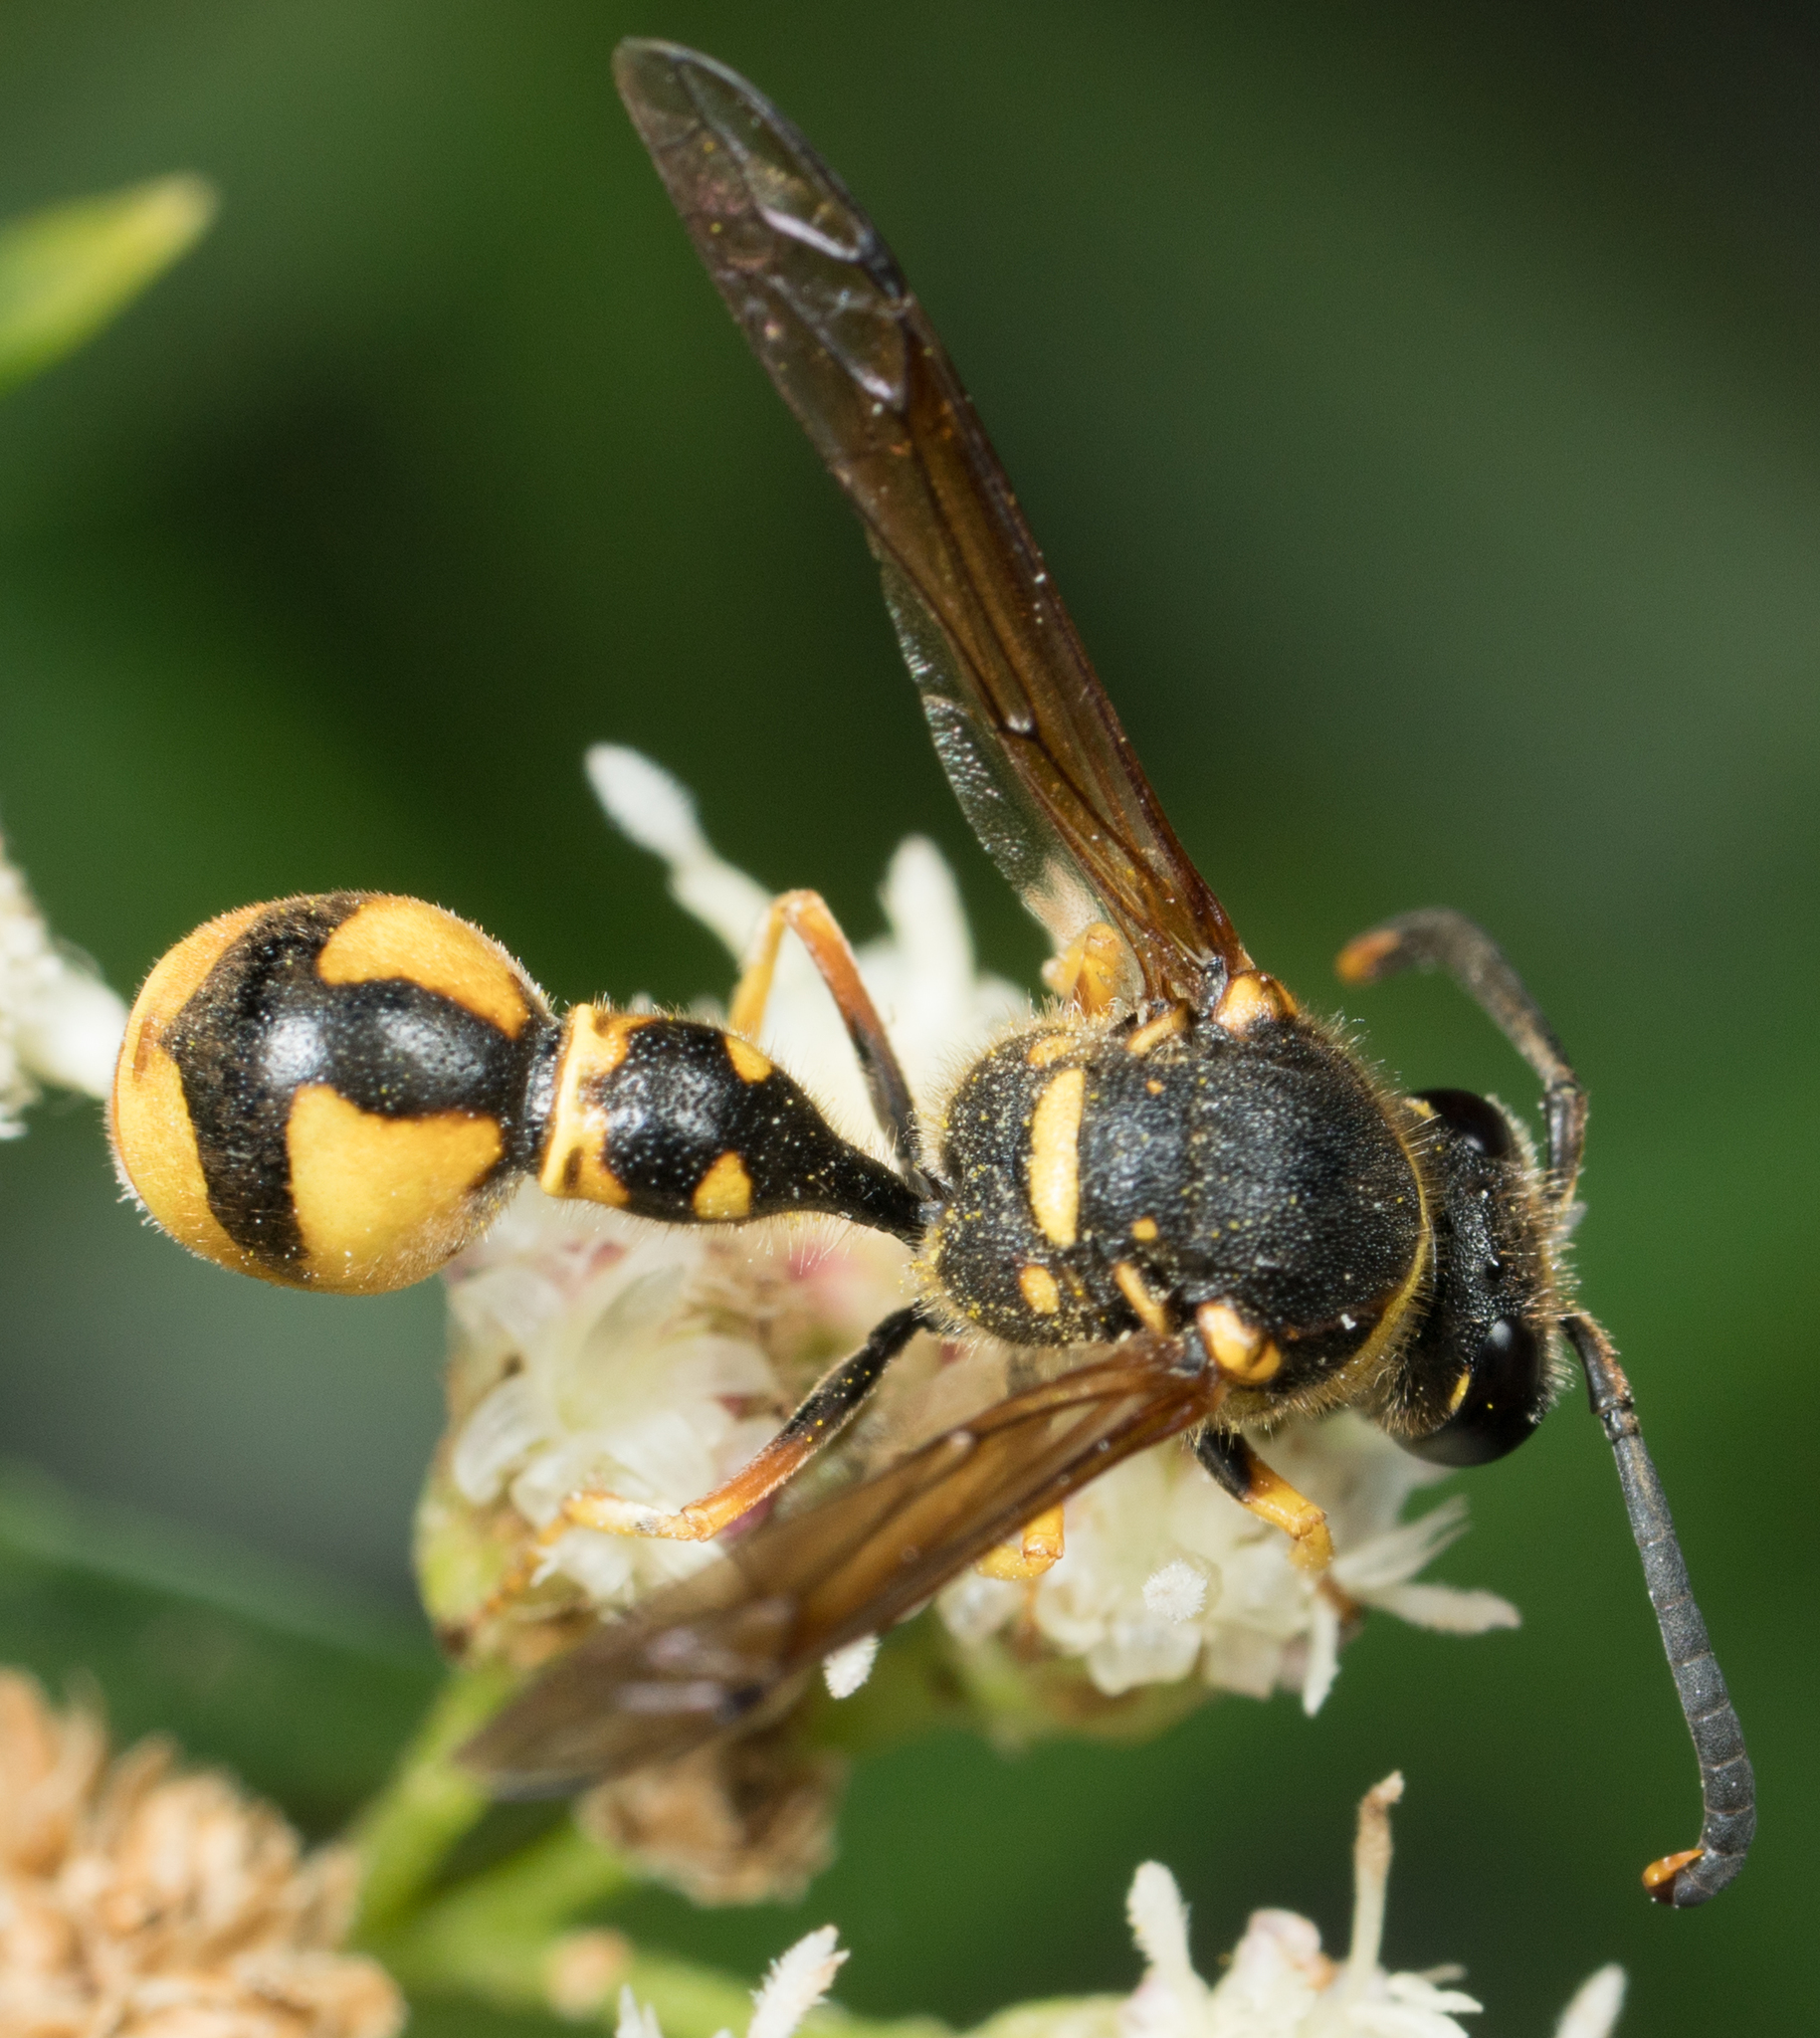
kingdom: Animalia
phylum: Arthropoda
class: Insecta
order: Hymenoptera
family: Vespidae
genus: Eumenes
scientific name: Eumenes crucifera
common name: Cross potter wasp
